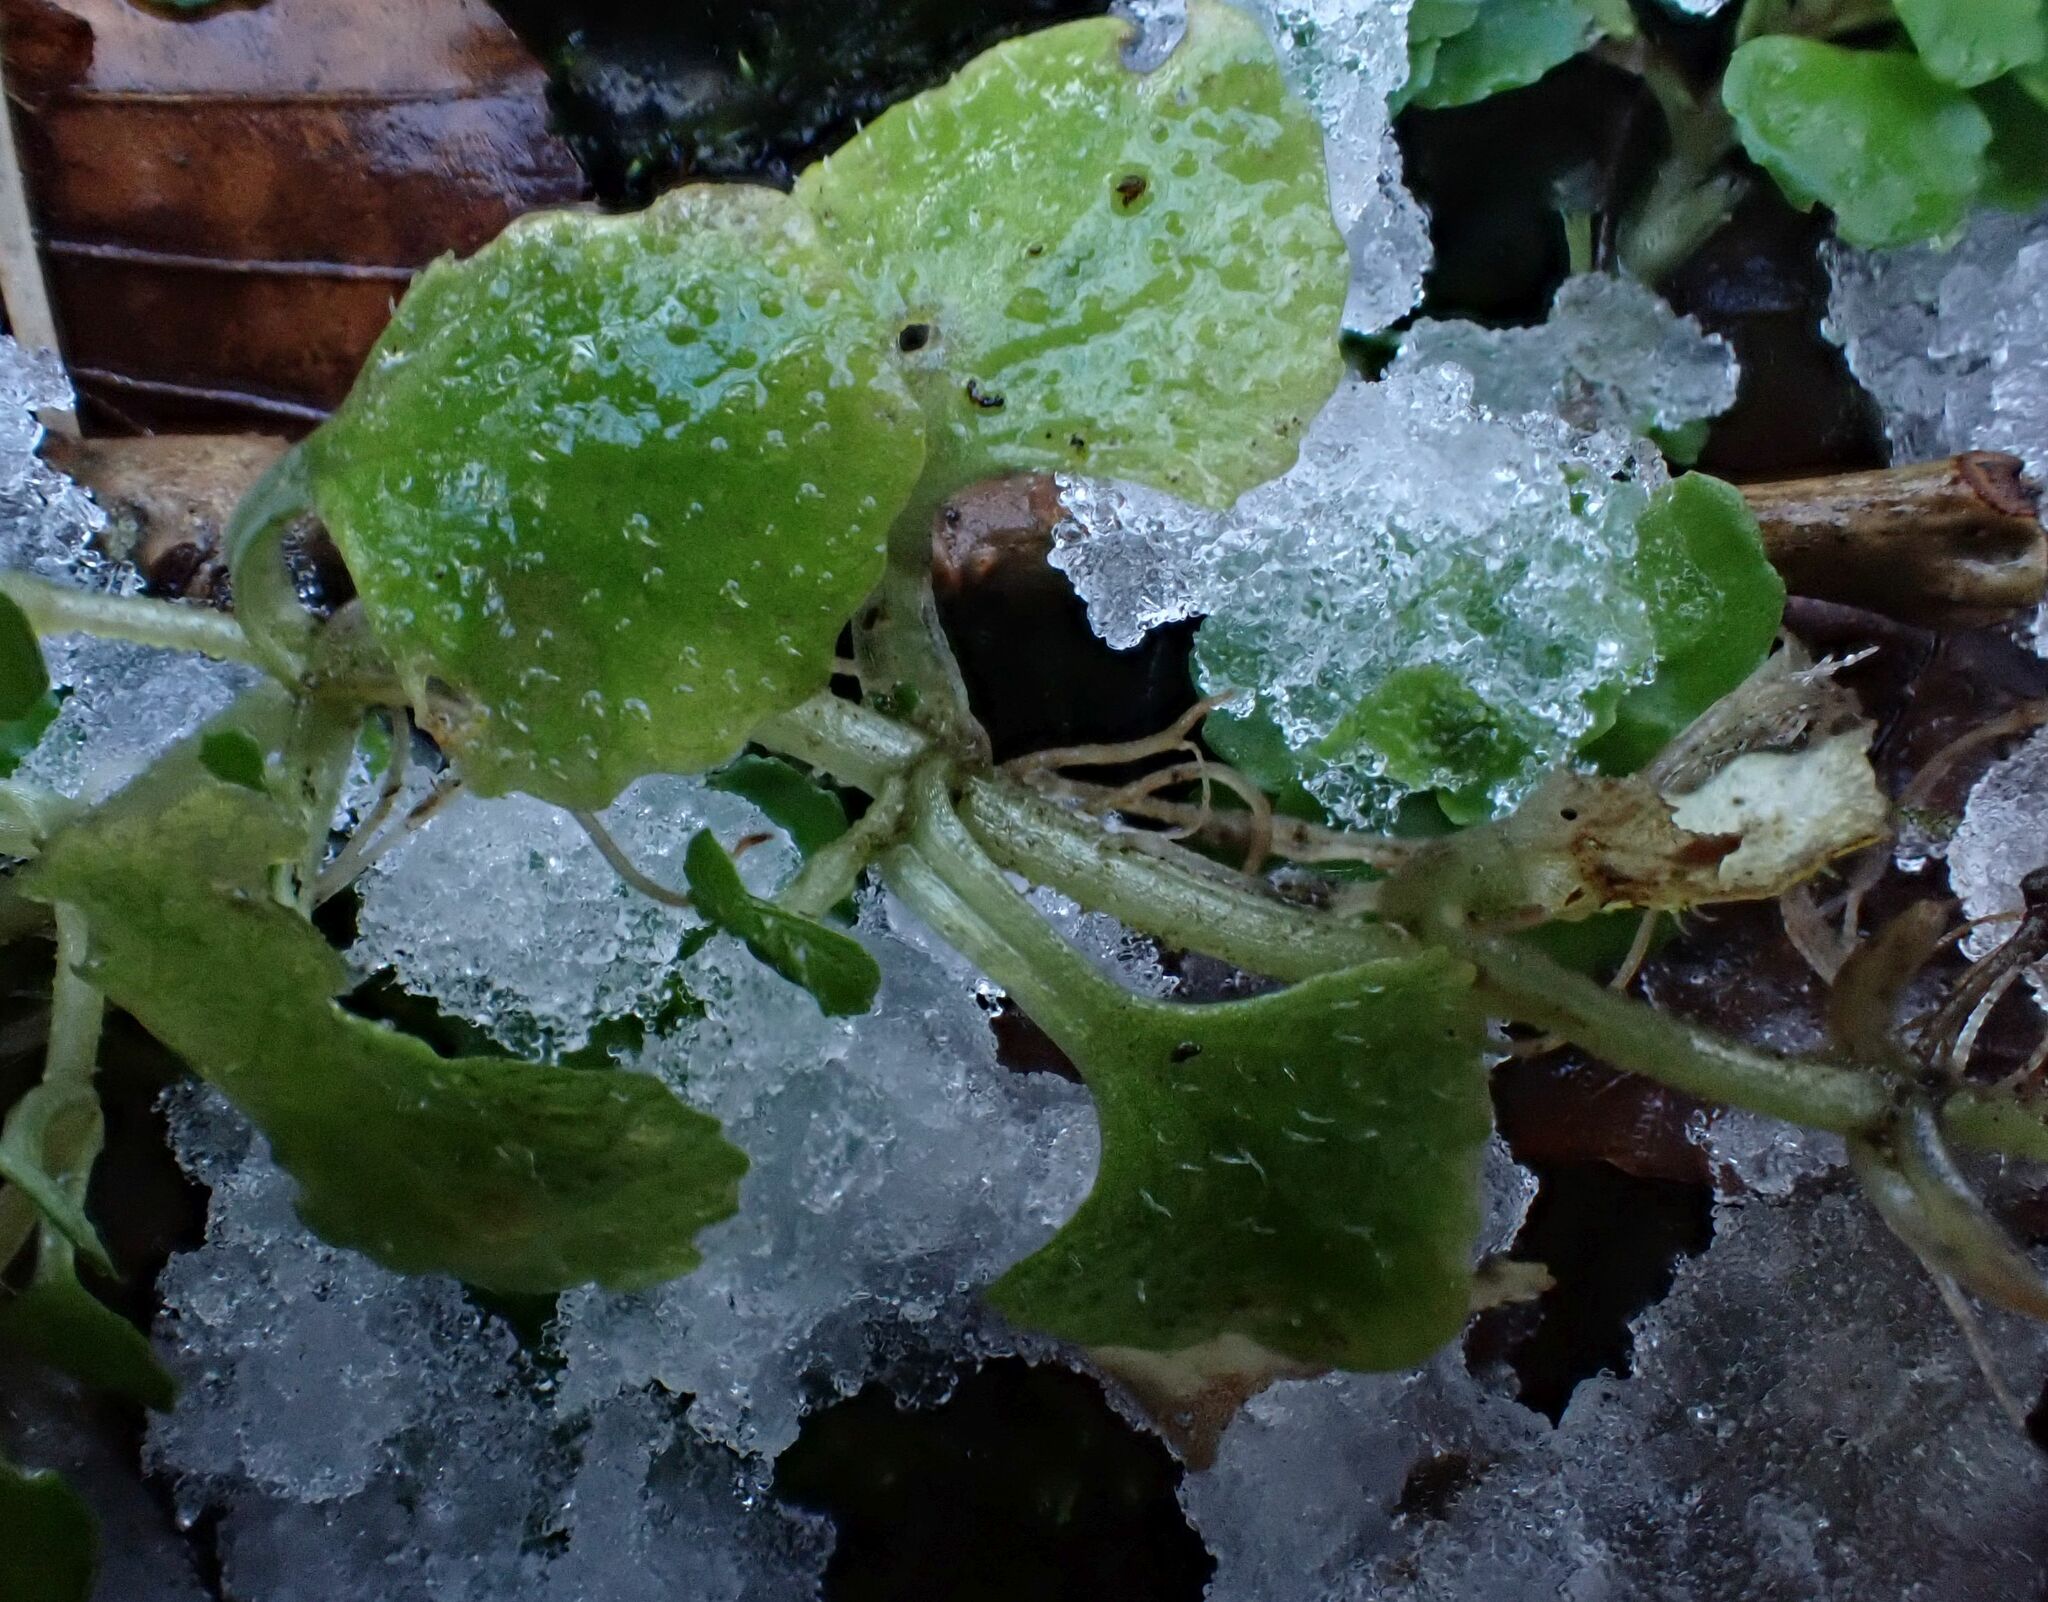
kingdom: Plantae
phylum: Tracheophyta
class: Magnoliopsida
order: Saxifragales
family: Saxifragaceae
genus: Chrysosplenium
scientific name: Chrysosplenium oppositifolium
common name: Opposite-leaved golden-saxifrage
